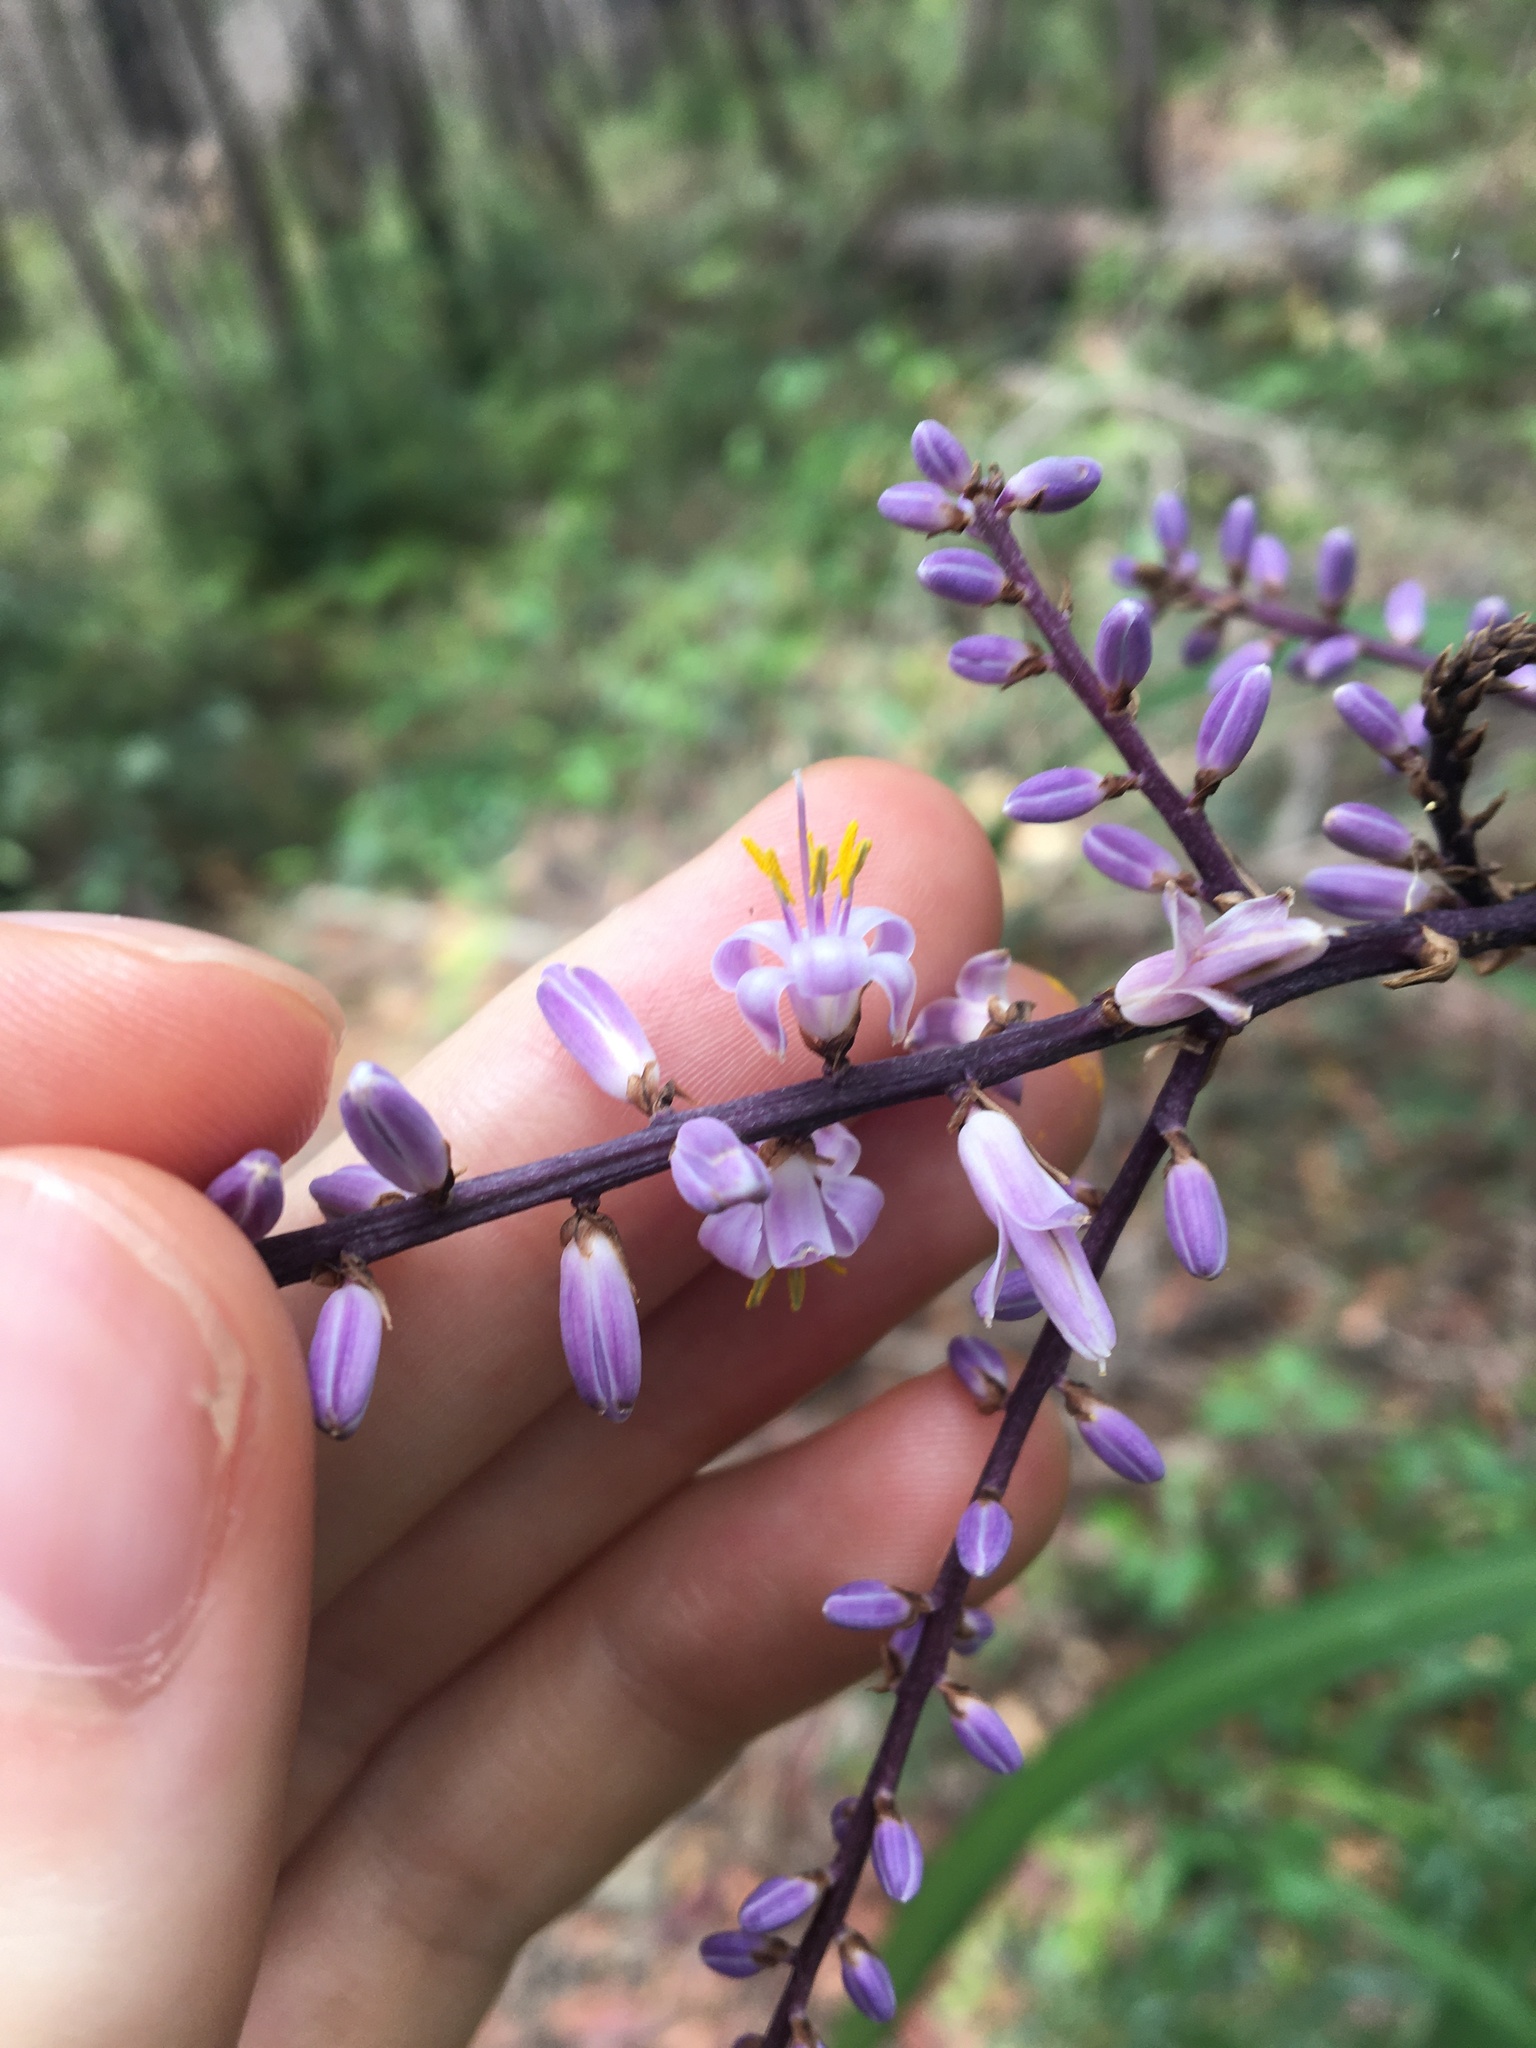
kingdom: Plantae
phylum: Tracheophyta
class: Liliopsida
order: Asparagales
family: Asparagaceae
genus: Cordyline
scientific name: Cordyline stricta
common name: Narrow-leaf palm-lily
